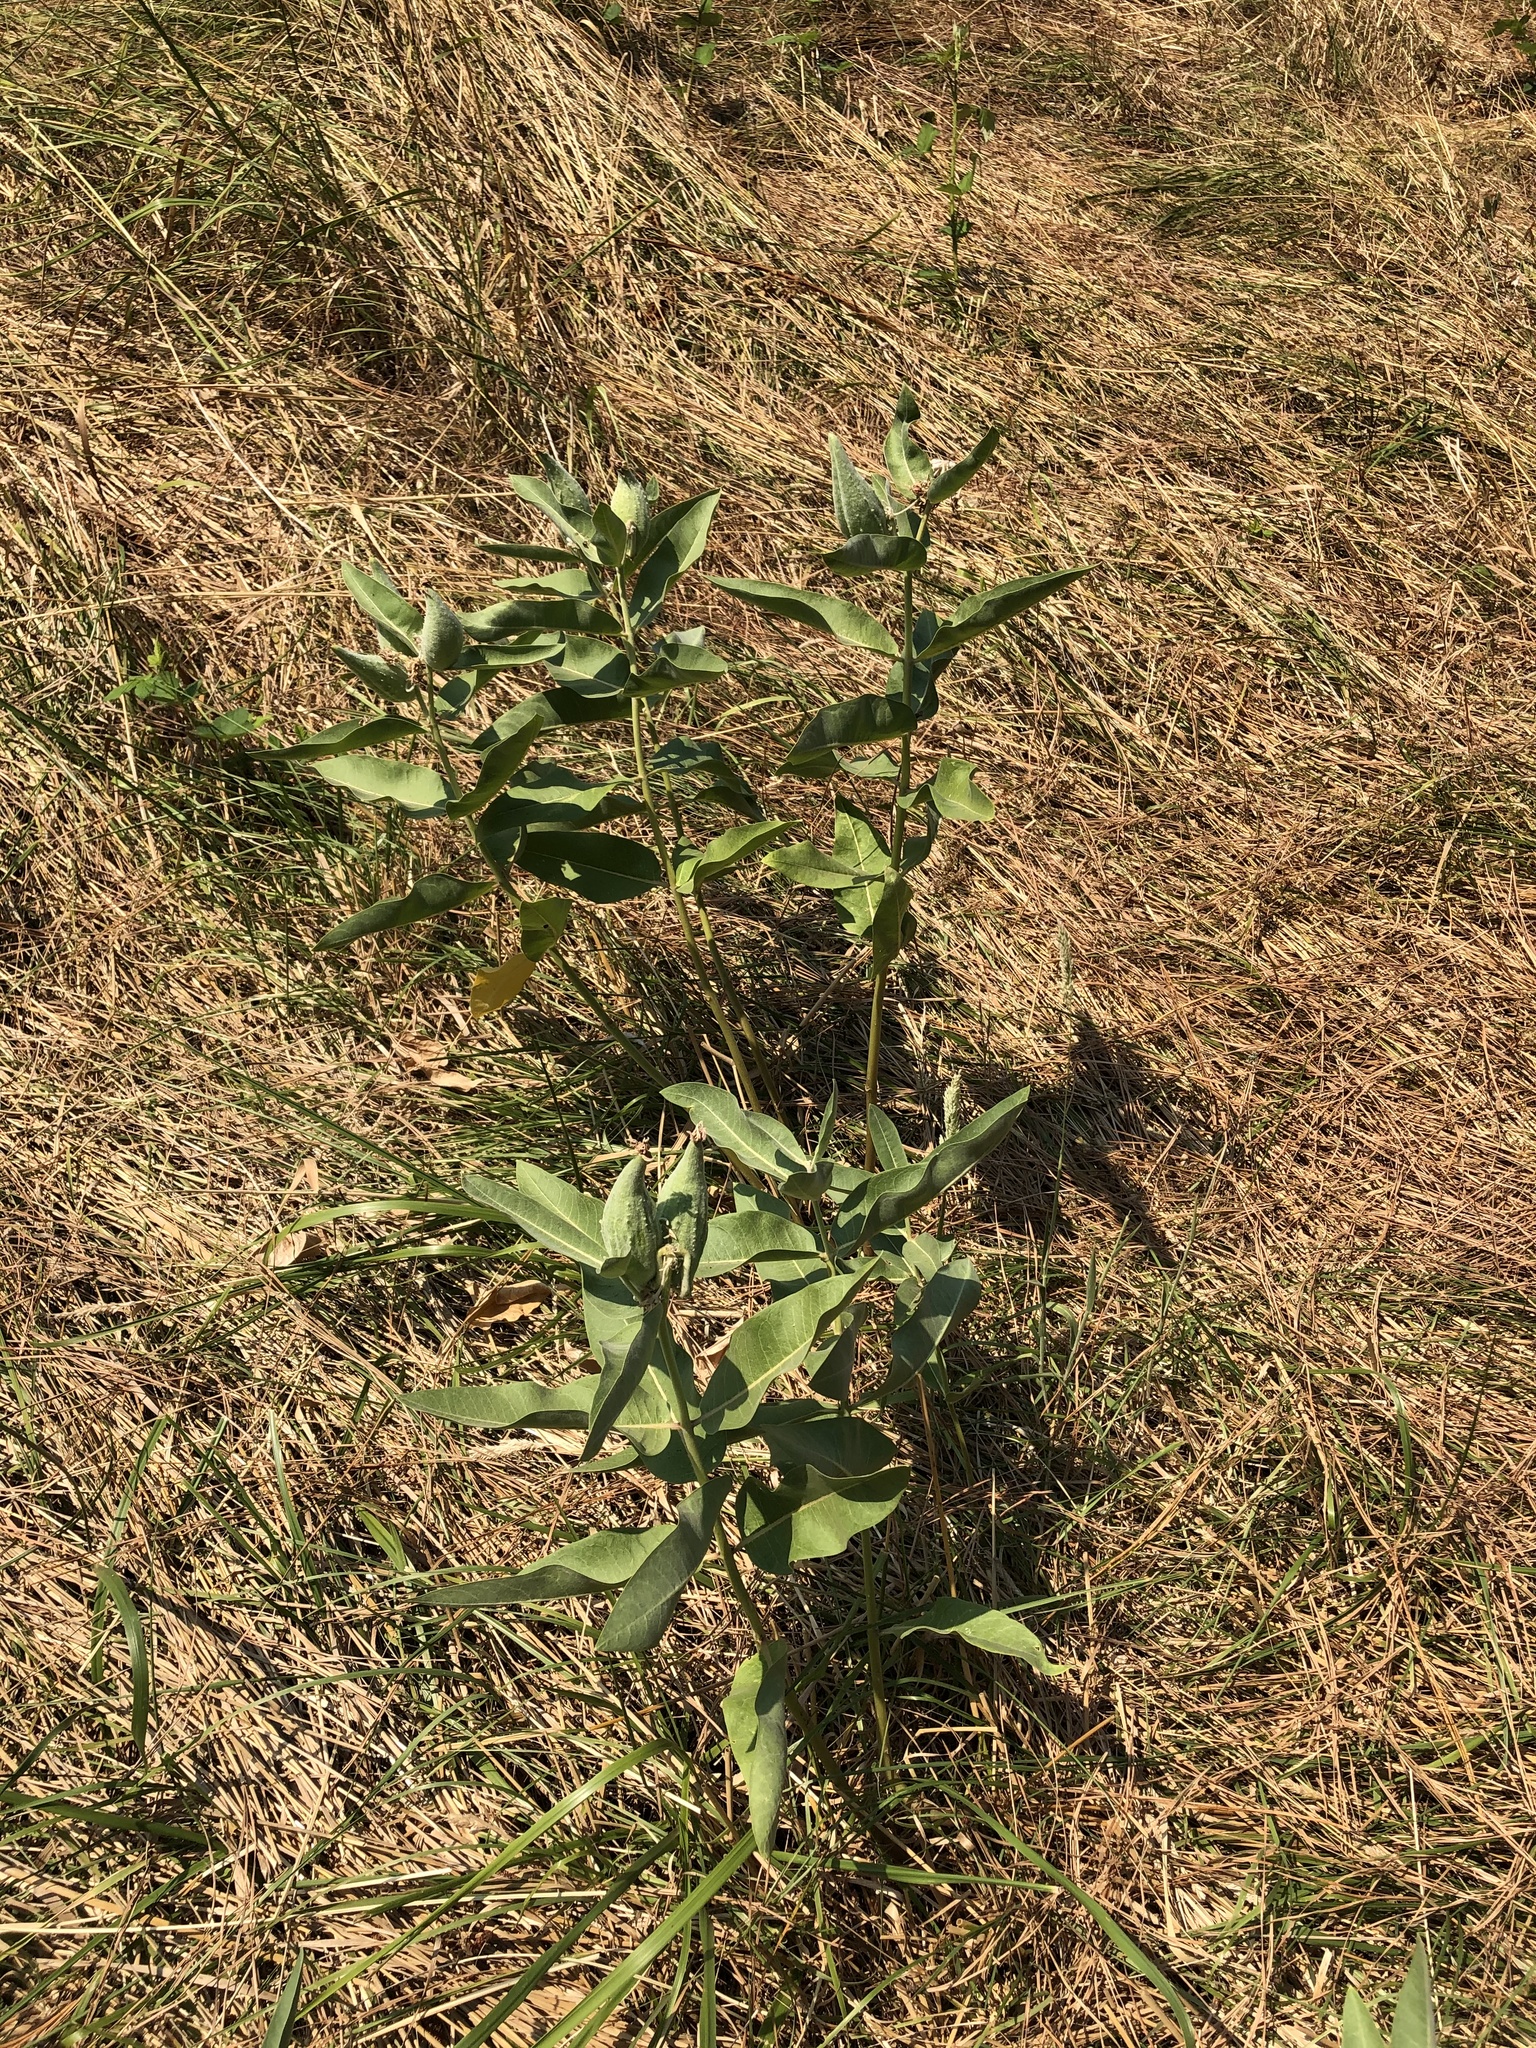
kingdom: Plantae
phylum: Tracheophyta
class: Magnoliopsida
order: Gentianales
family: Apocynaceae
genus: Asclepias
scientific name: Asclepias speciosa
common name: Showy milkweed
